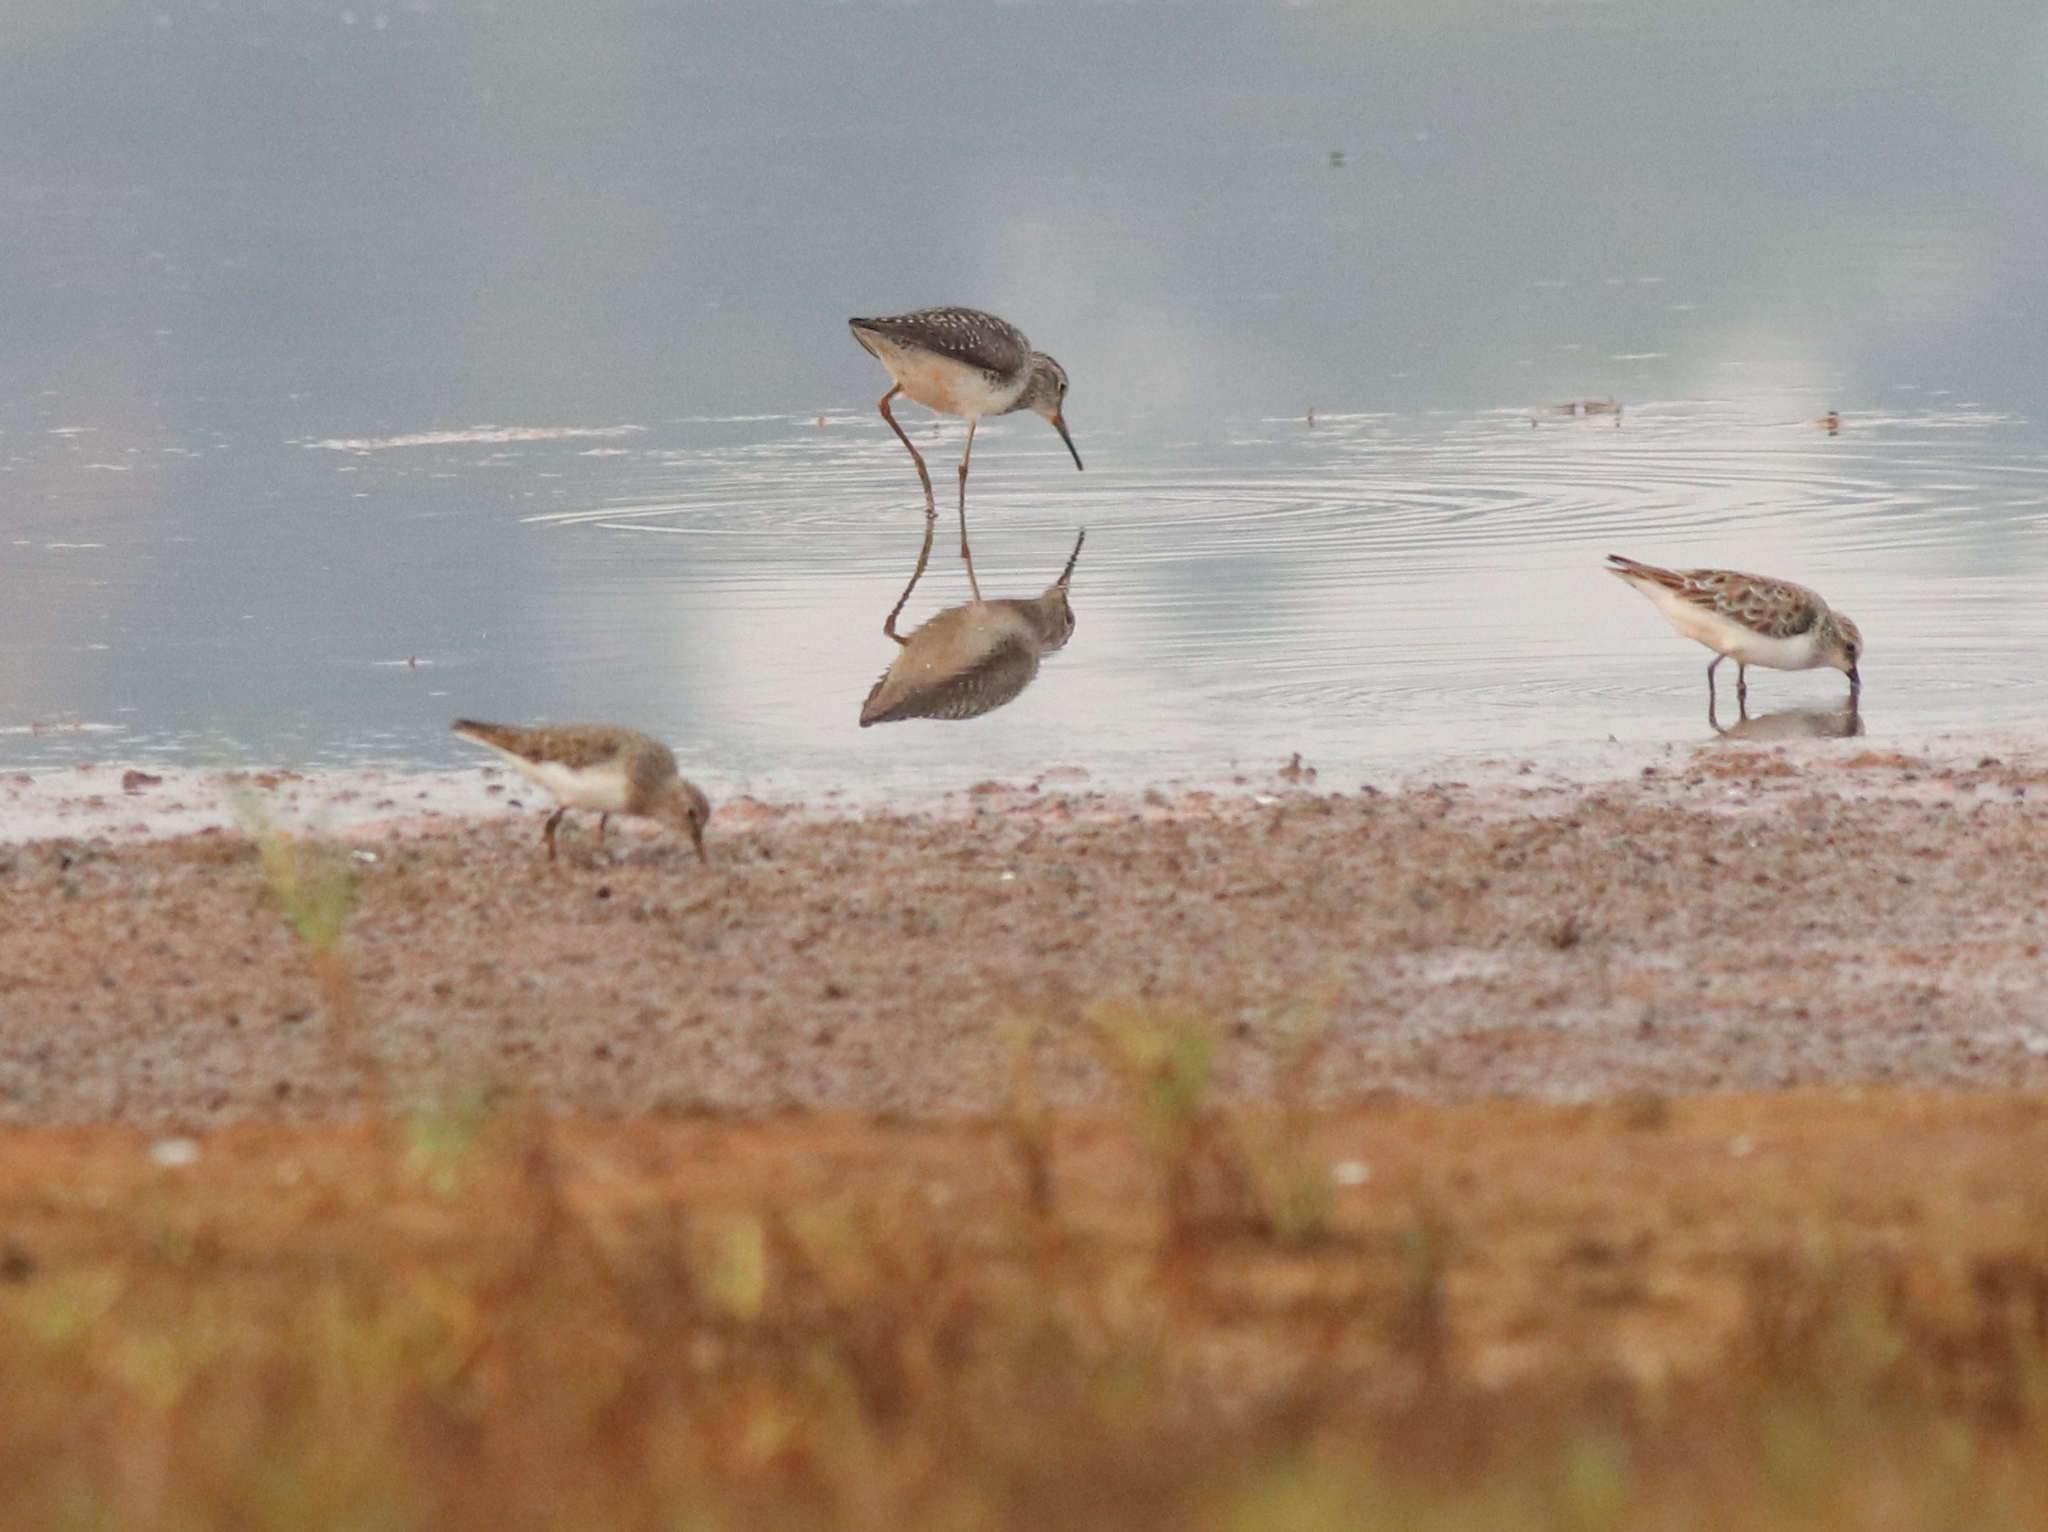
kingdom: Animalia
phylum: Chordata
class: Aves
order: Charadriiformes
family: Scolopacidae
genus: Calidris
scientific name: Calidris temminckii
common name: Temminck's stint
